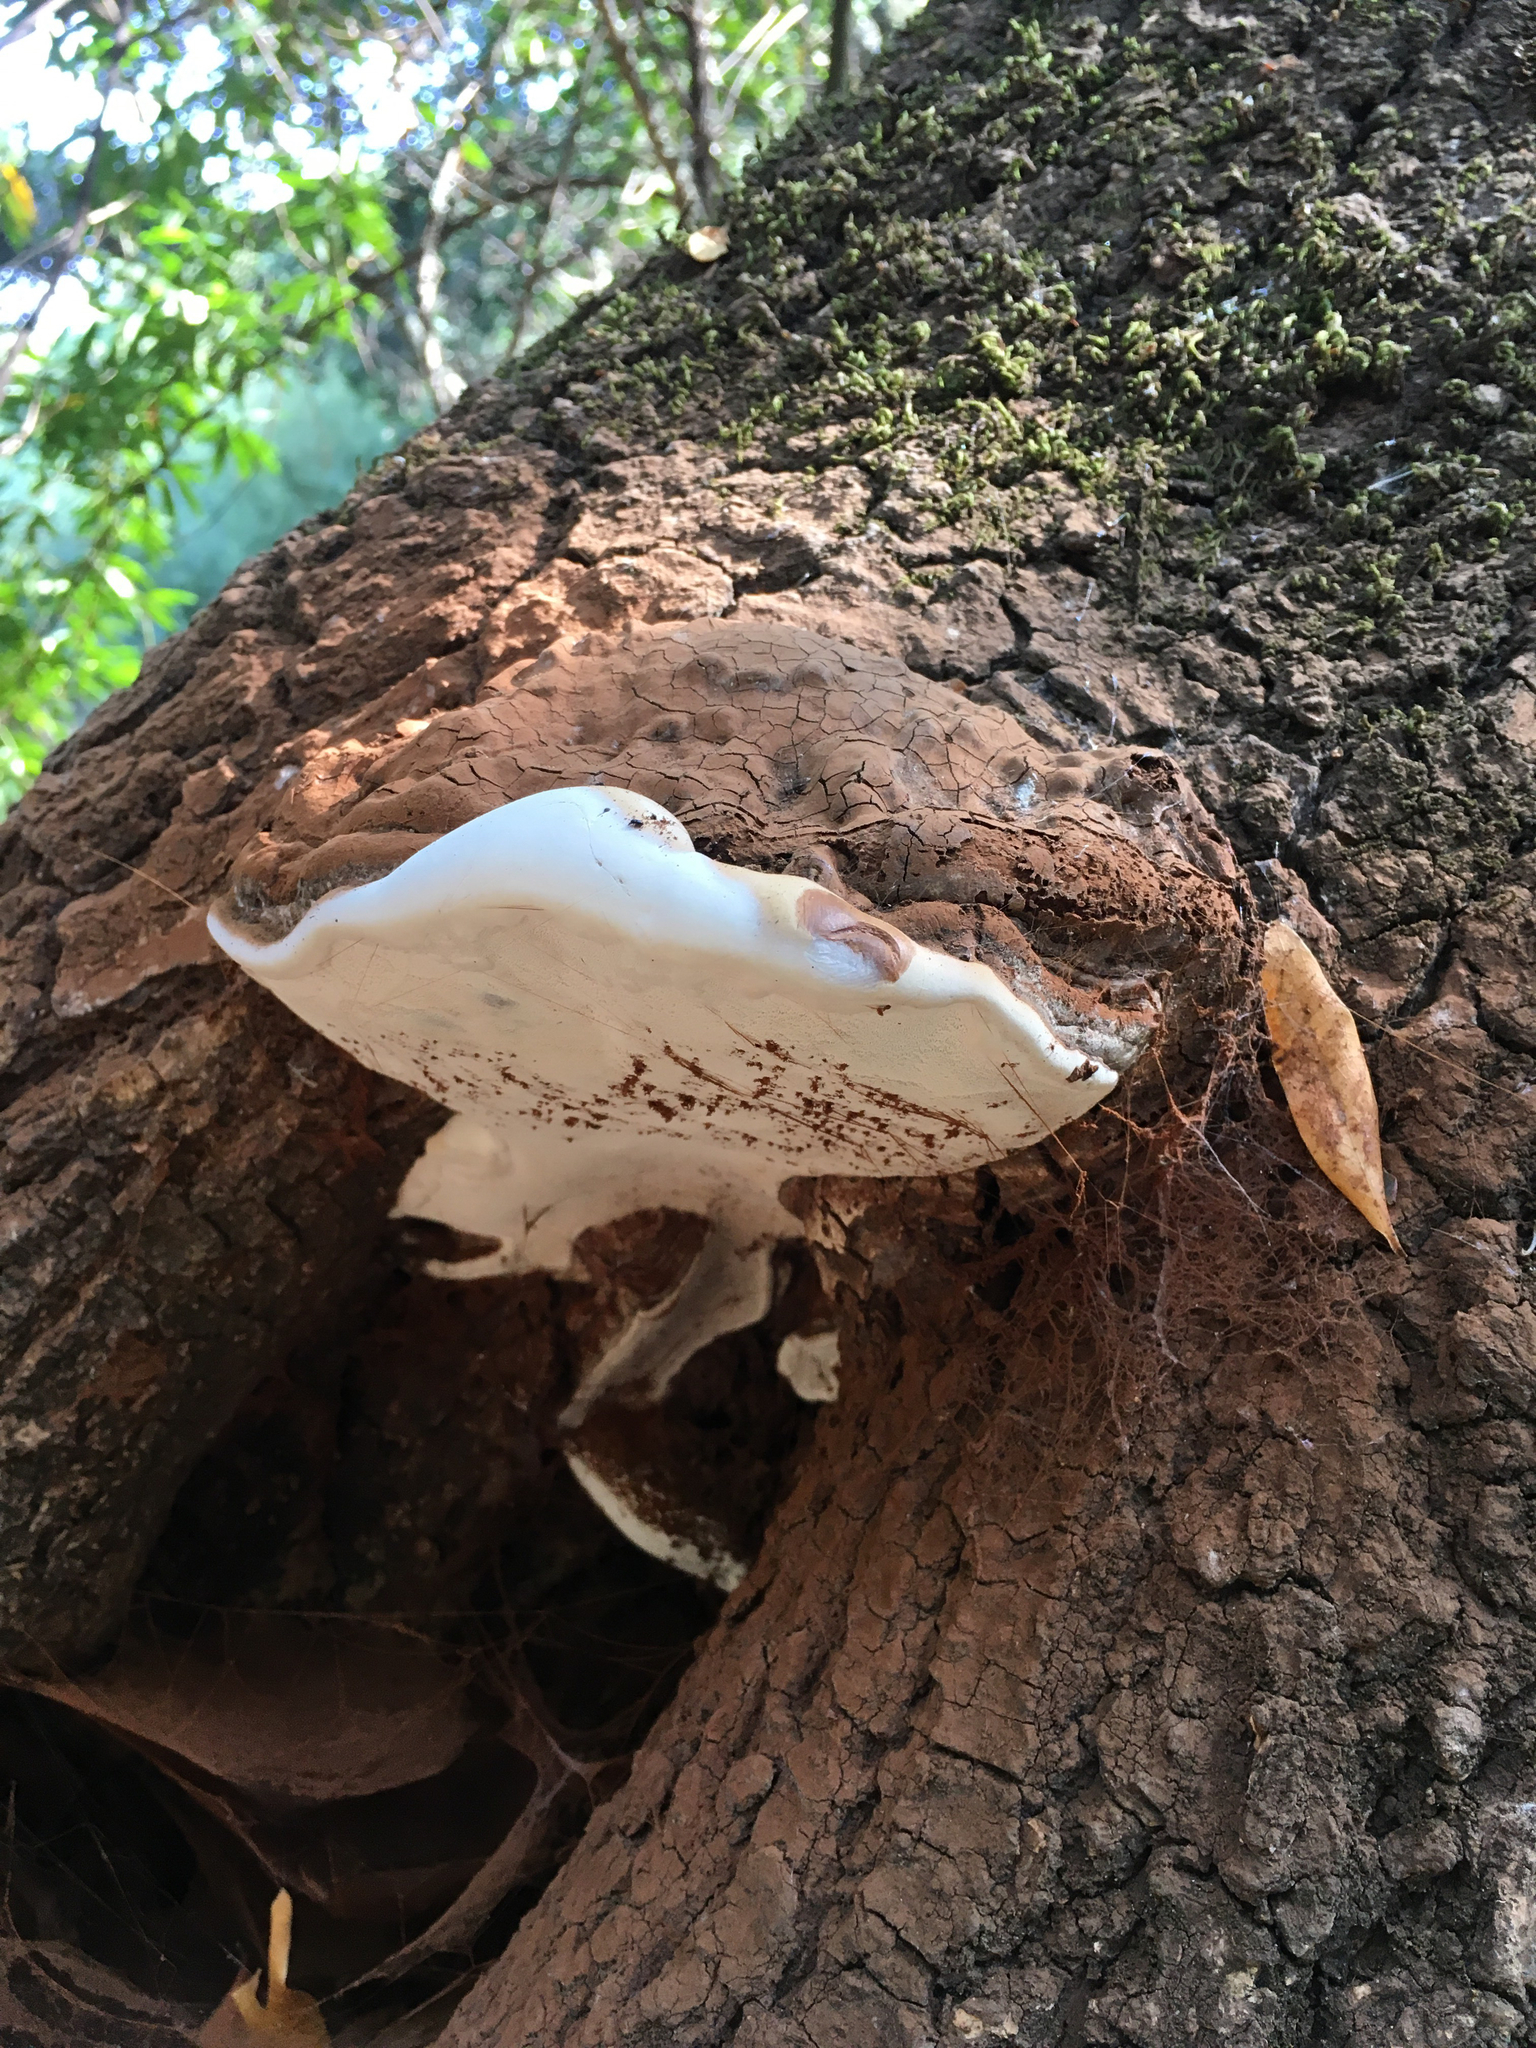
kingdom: Fungi
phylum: Basidiomycota
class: Agaricomycetes
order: Polyporales
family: Polyporaceae
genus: Ganoderma
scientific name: Ganoderma brownii
